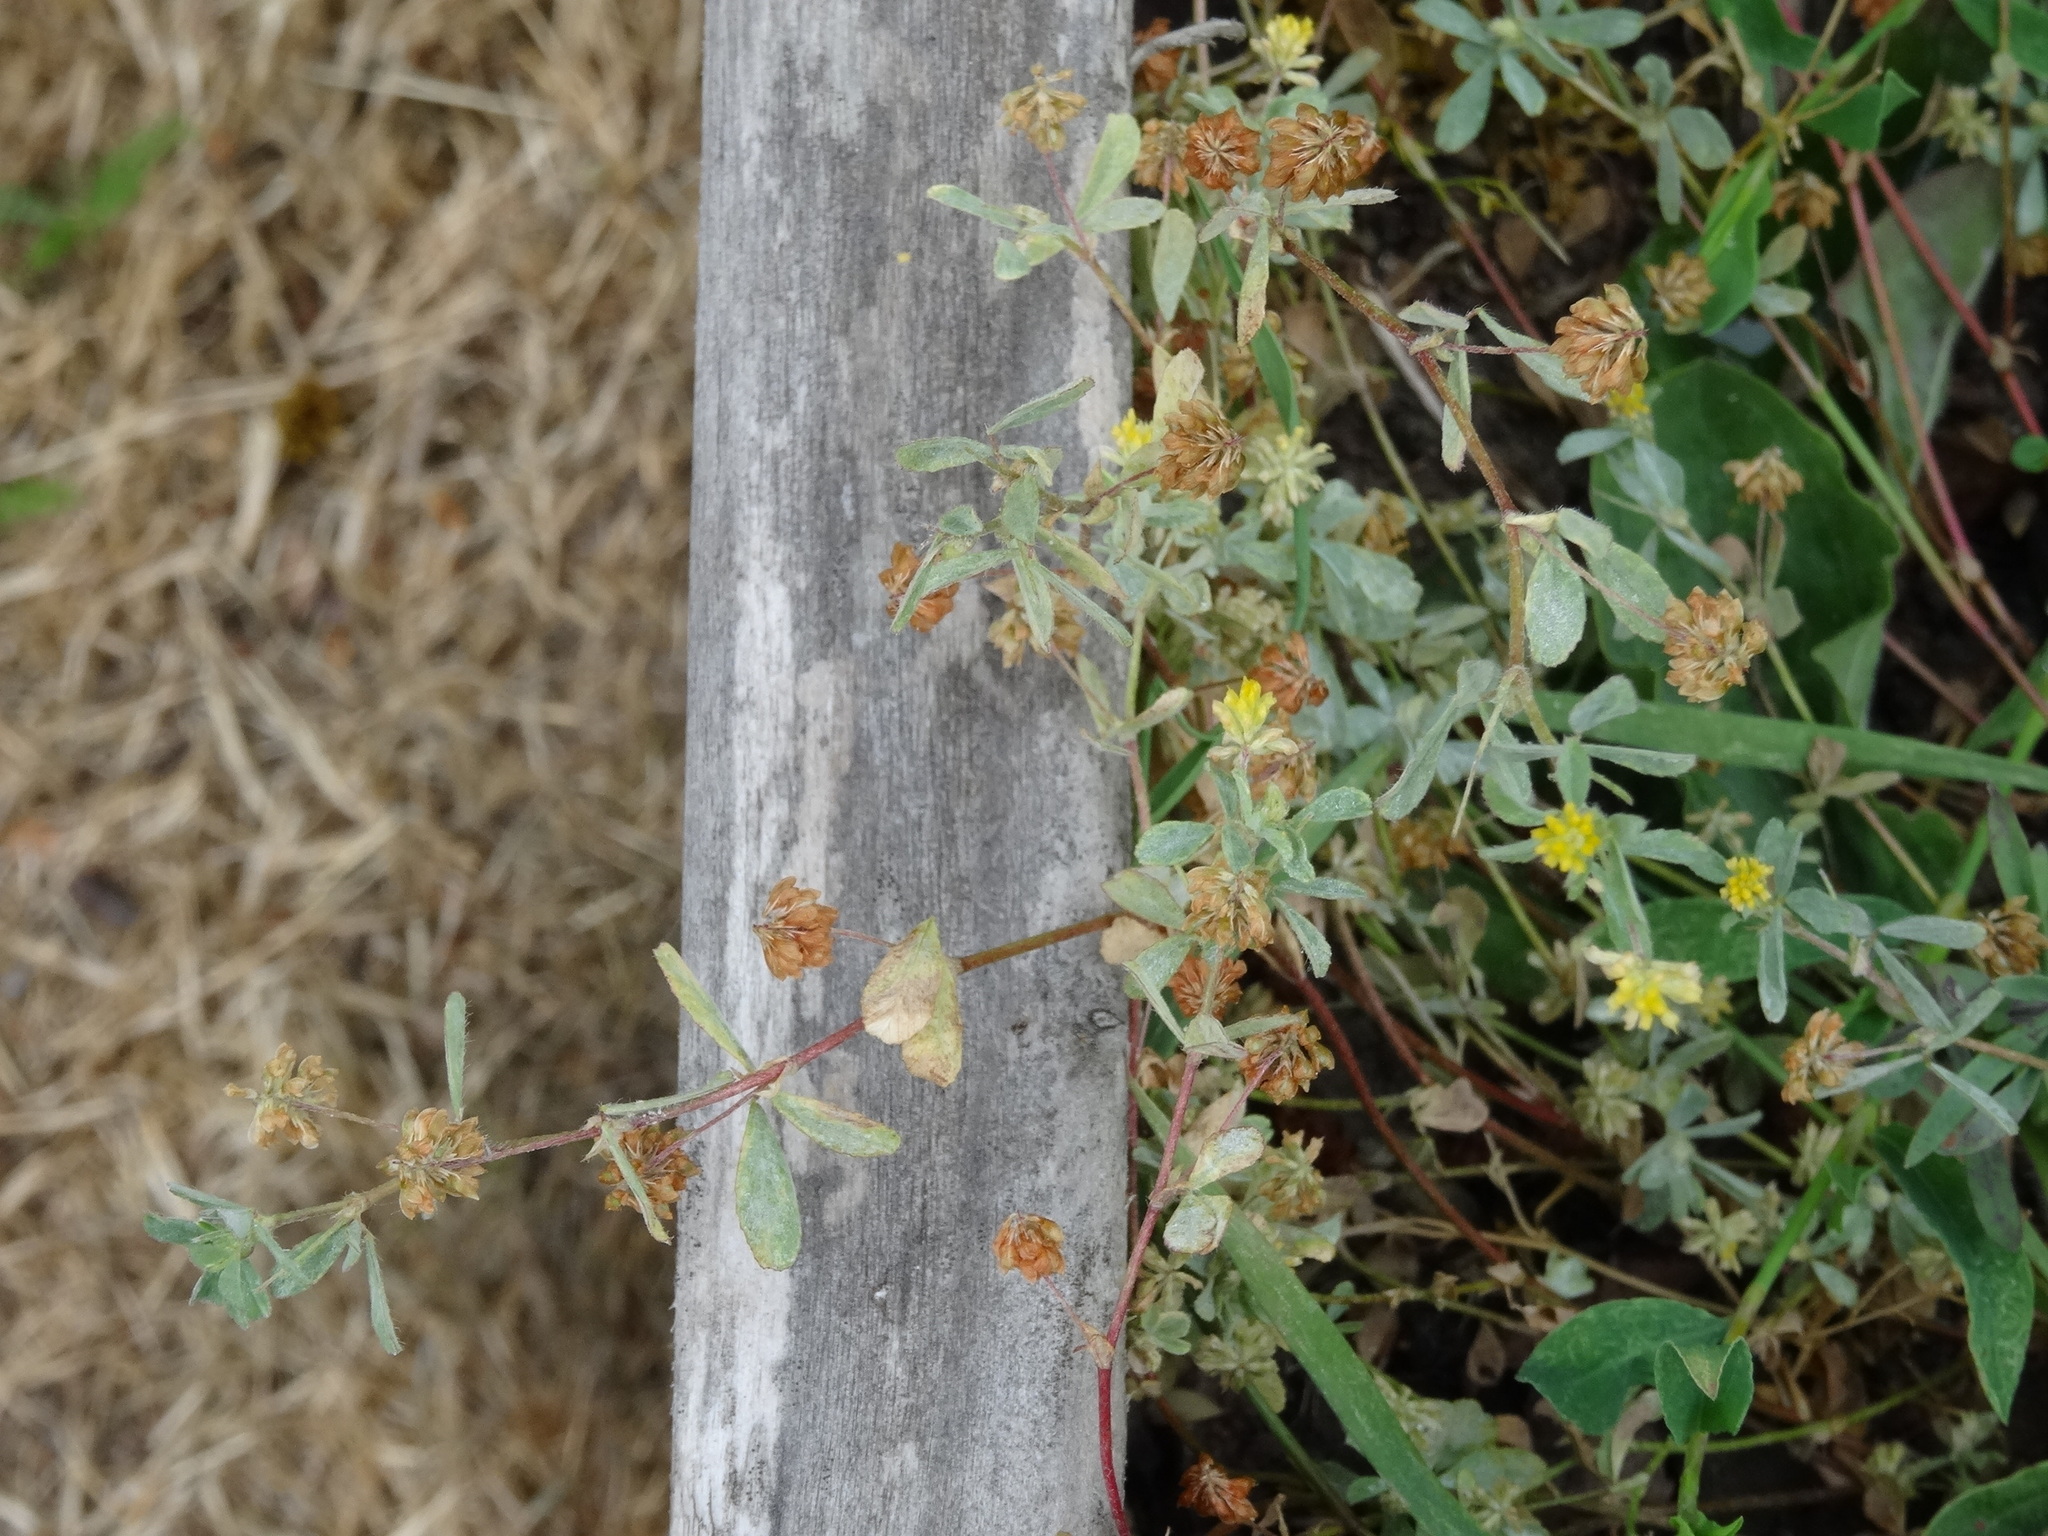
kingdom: Plantae
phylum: Tracheophyta
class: Magnoliopsida
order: Fabales
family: Fabaceae
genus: Trifolium
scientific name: Trifolium dubium
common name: Suckling clover
